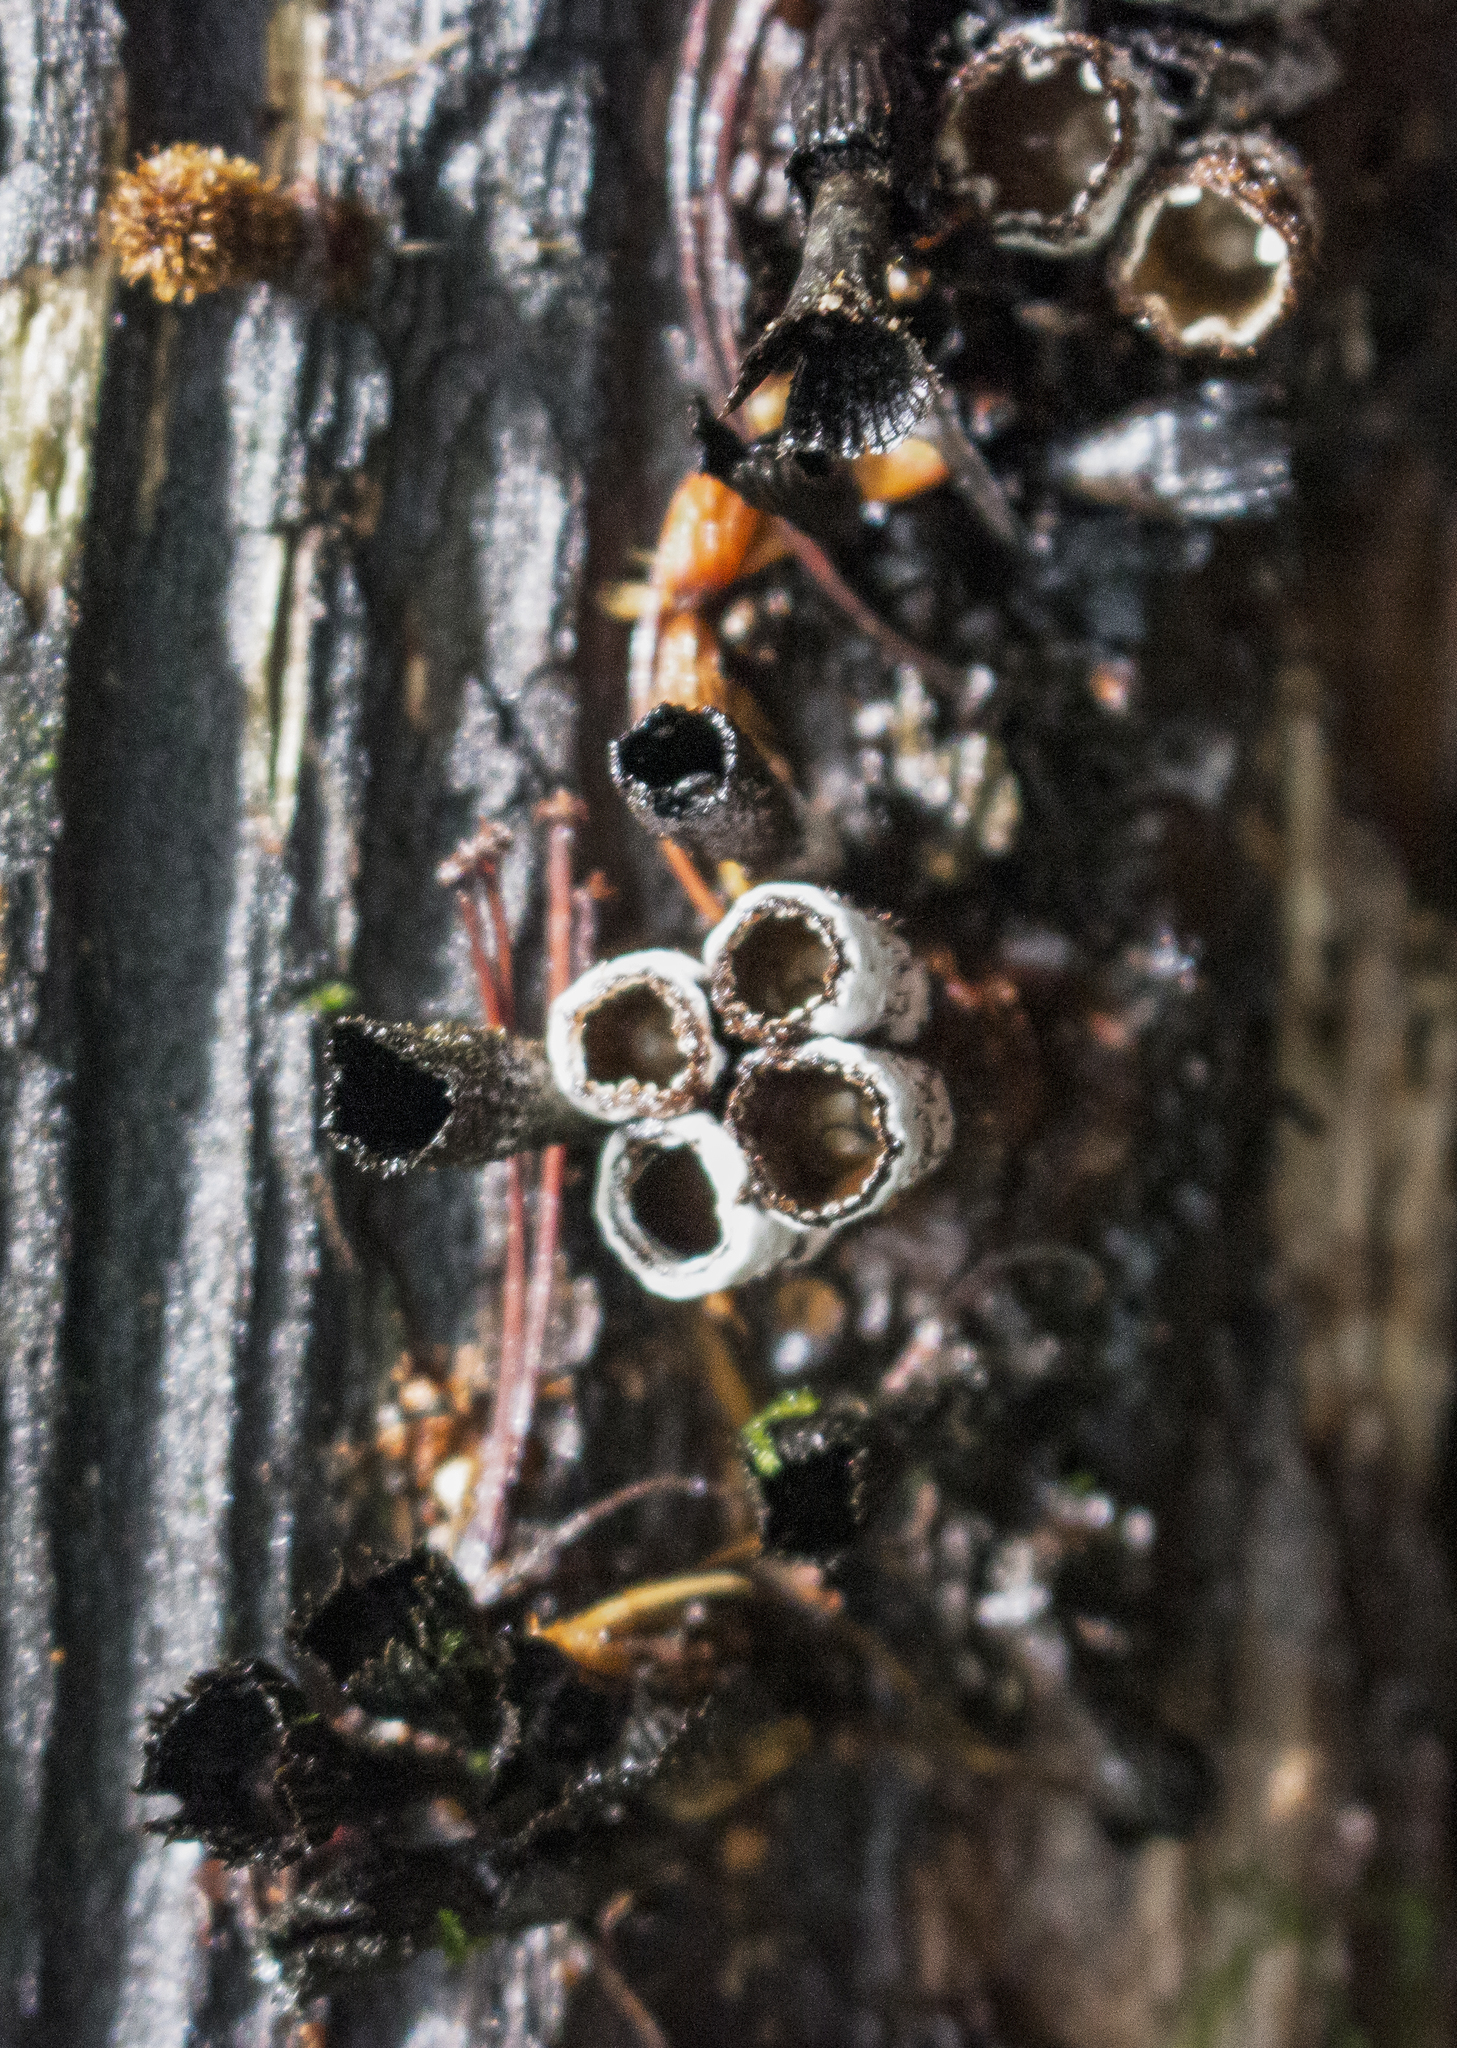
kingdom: Fungi
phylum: Basidiomycota
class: Agaricomycetes
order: Agaricales
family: Agaricaceae
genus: Cyathus
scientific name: Cyathus striatus
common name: Fluted bird's nest
